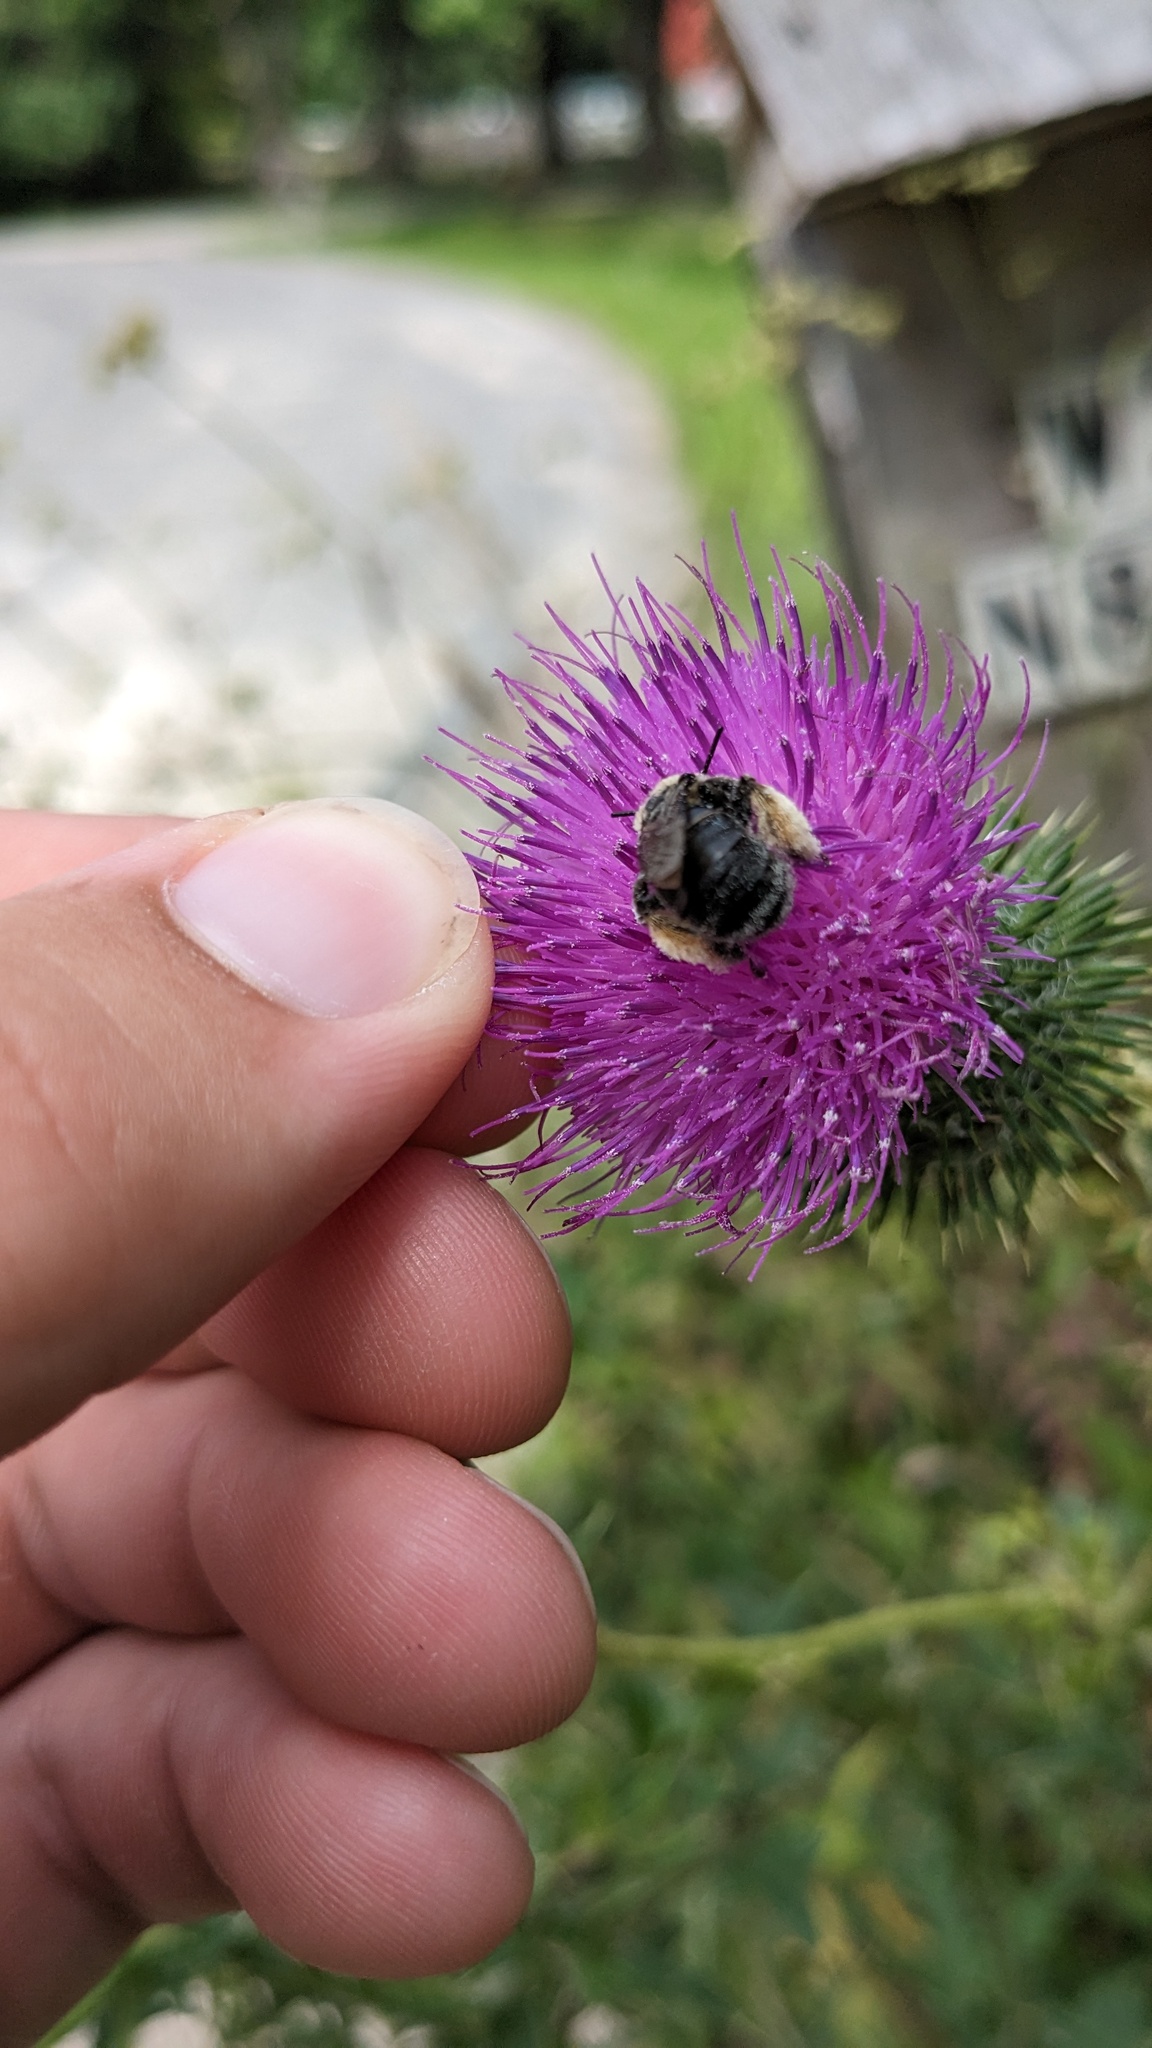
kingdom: Animalia
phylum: Arthropoda
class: Insecta
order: Hymenoptera
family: Apidae
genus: Melissodes
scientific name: Melissodes desponsus
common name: Thistle long-horned bee
